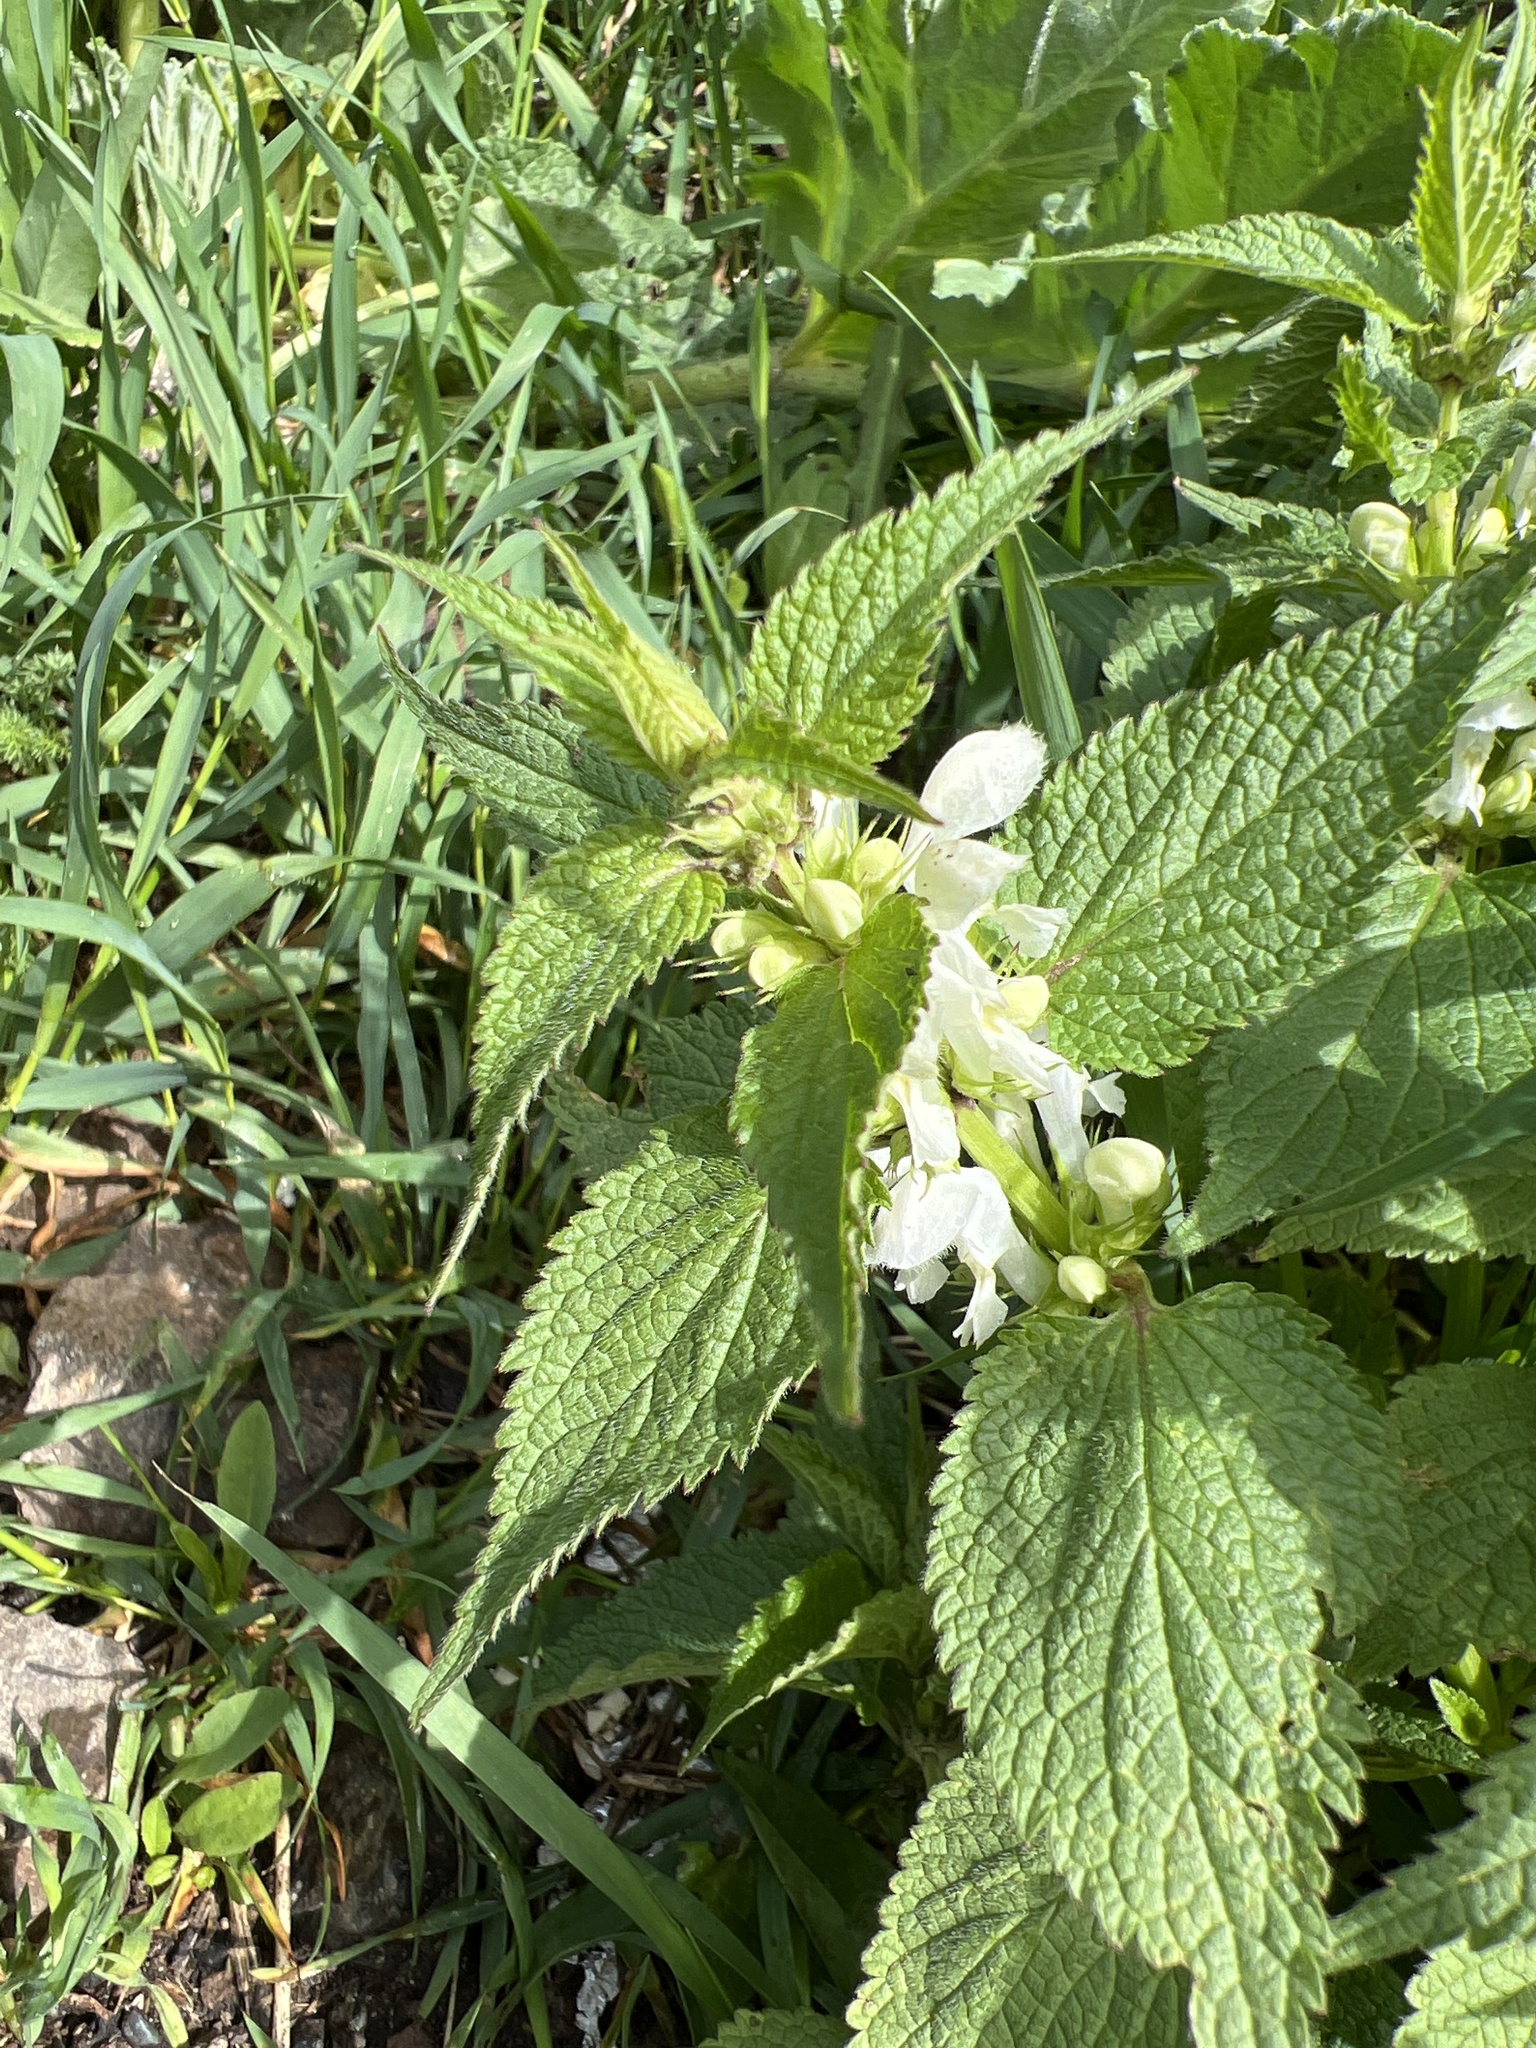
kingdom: Plantae
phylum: Tracheophyta
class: Magnoliopsida
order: Lamiales
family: Lamiaceae
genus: Lamium
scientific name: Lamium album
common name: White dead-nettle
